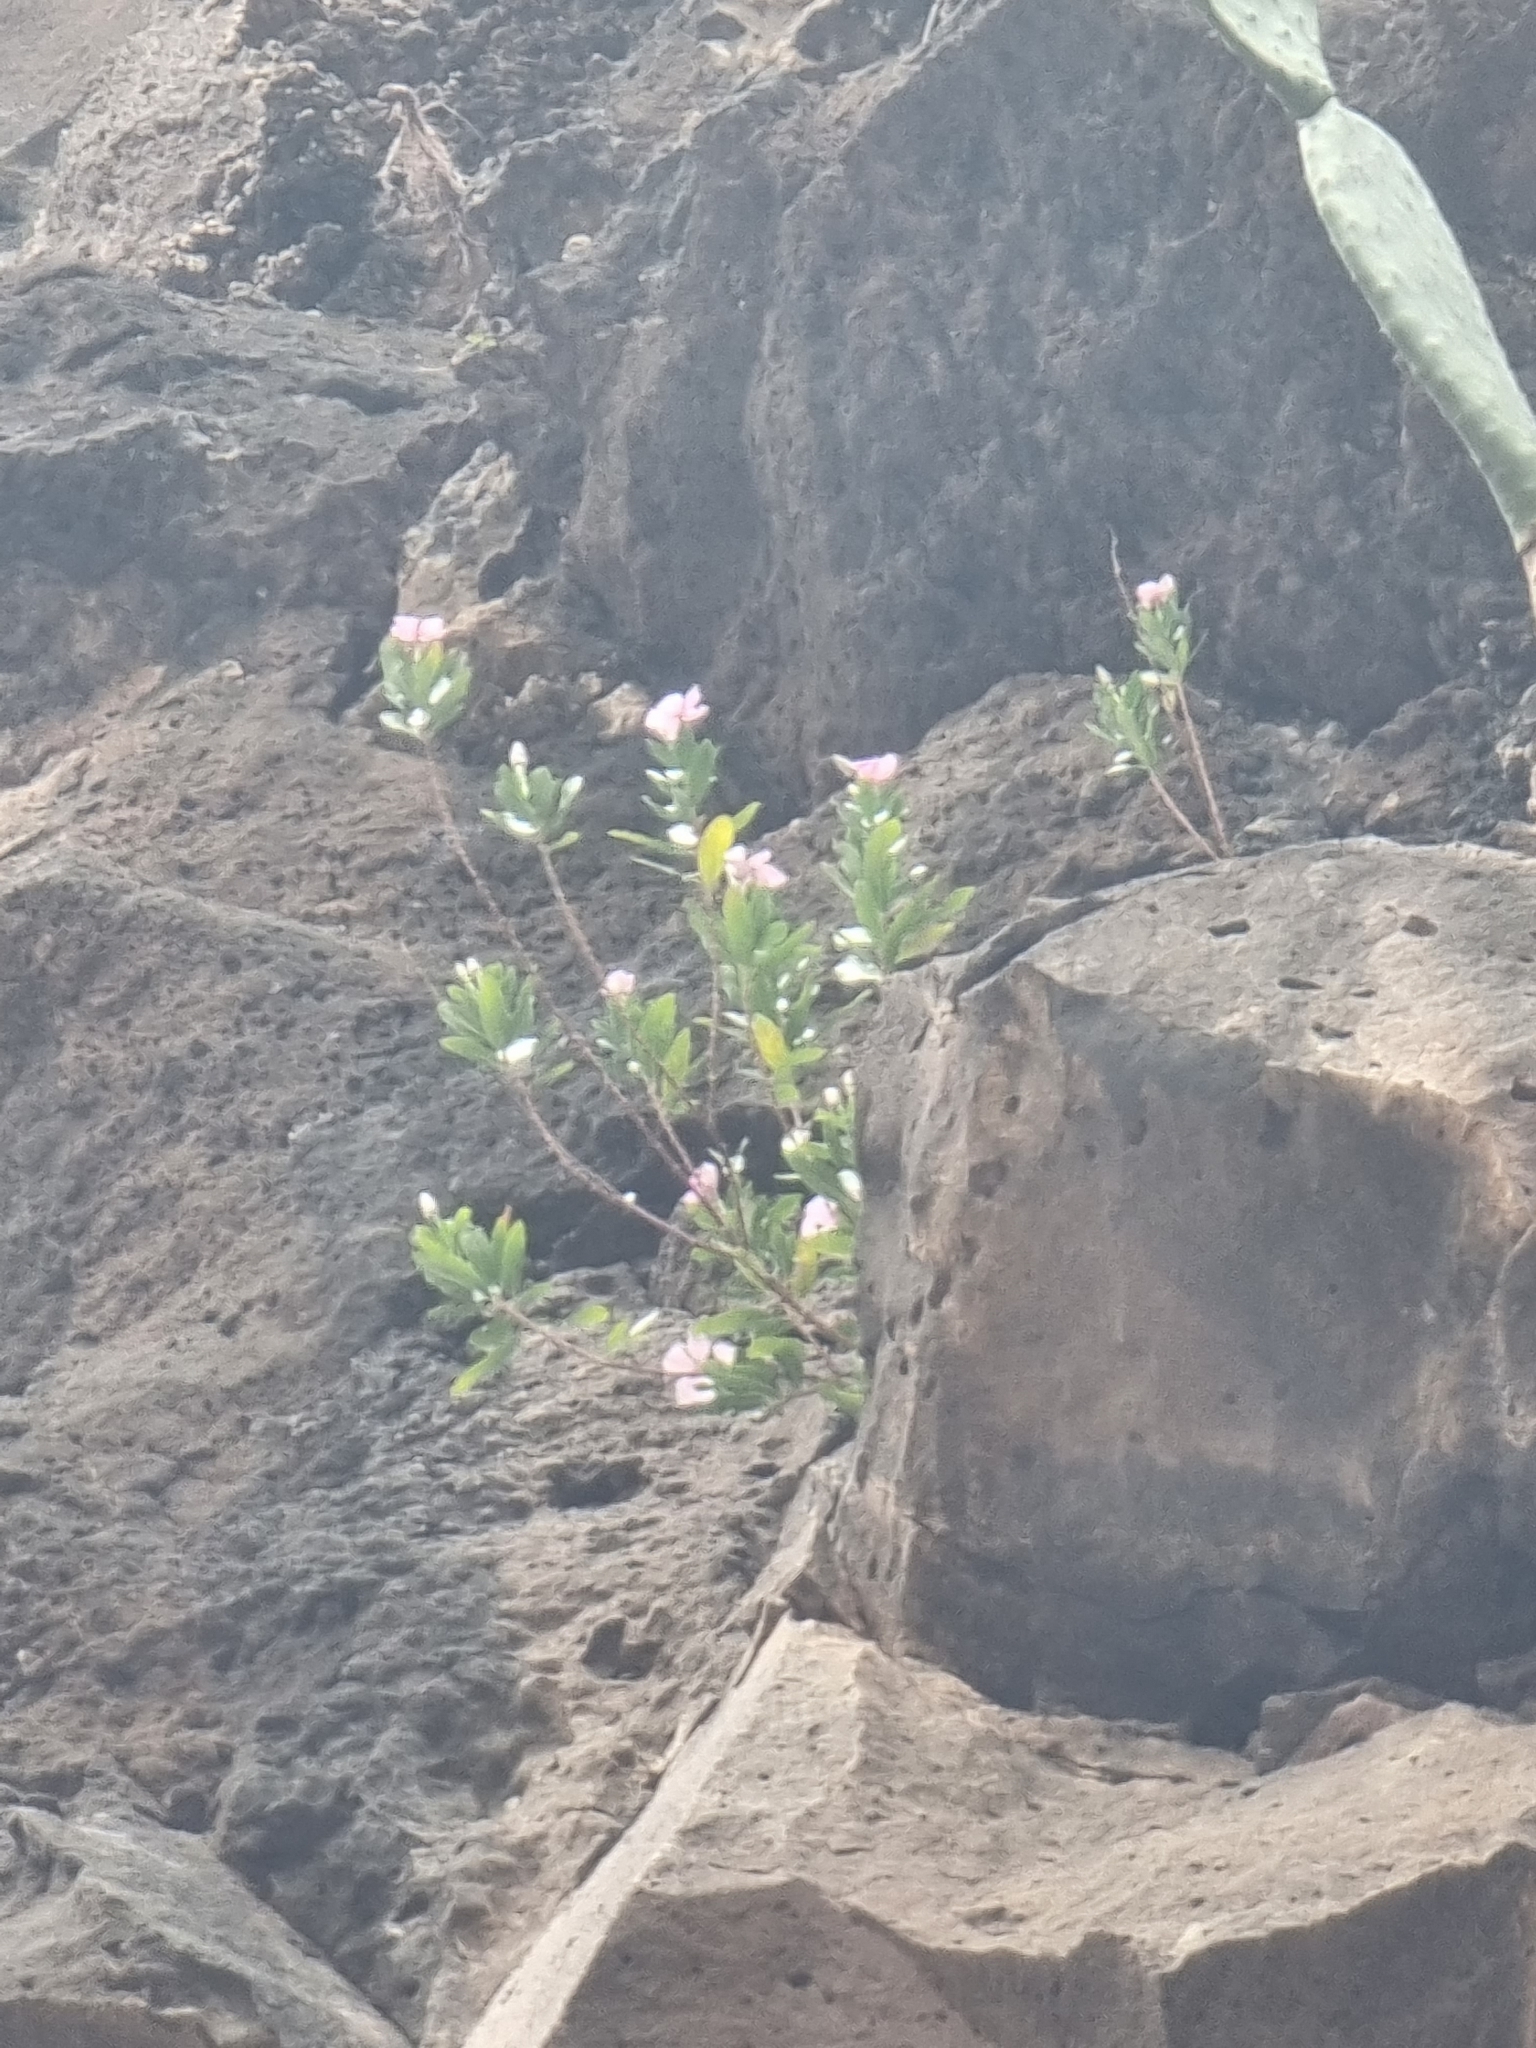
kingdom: Plantae
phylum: Tracheophyta
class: Magnoliopsida
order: Gentianales
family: Apocynaceae
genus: Catharanthus
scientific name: Catharanthus roseus
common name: Madagascar periwinkle
